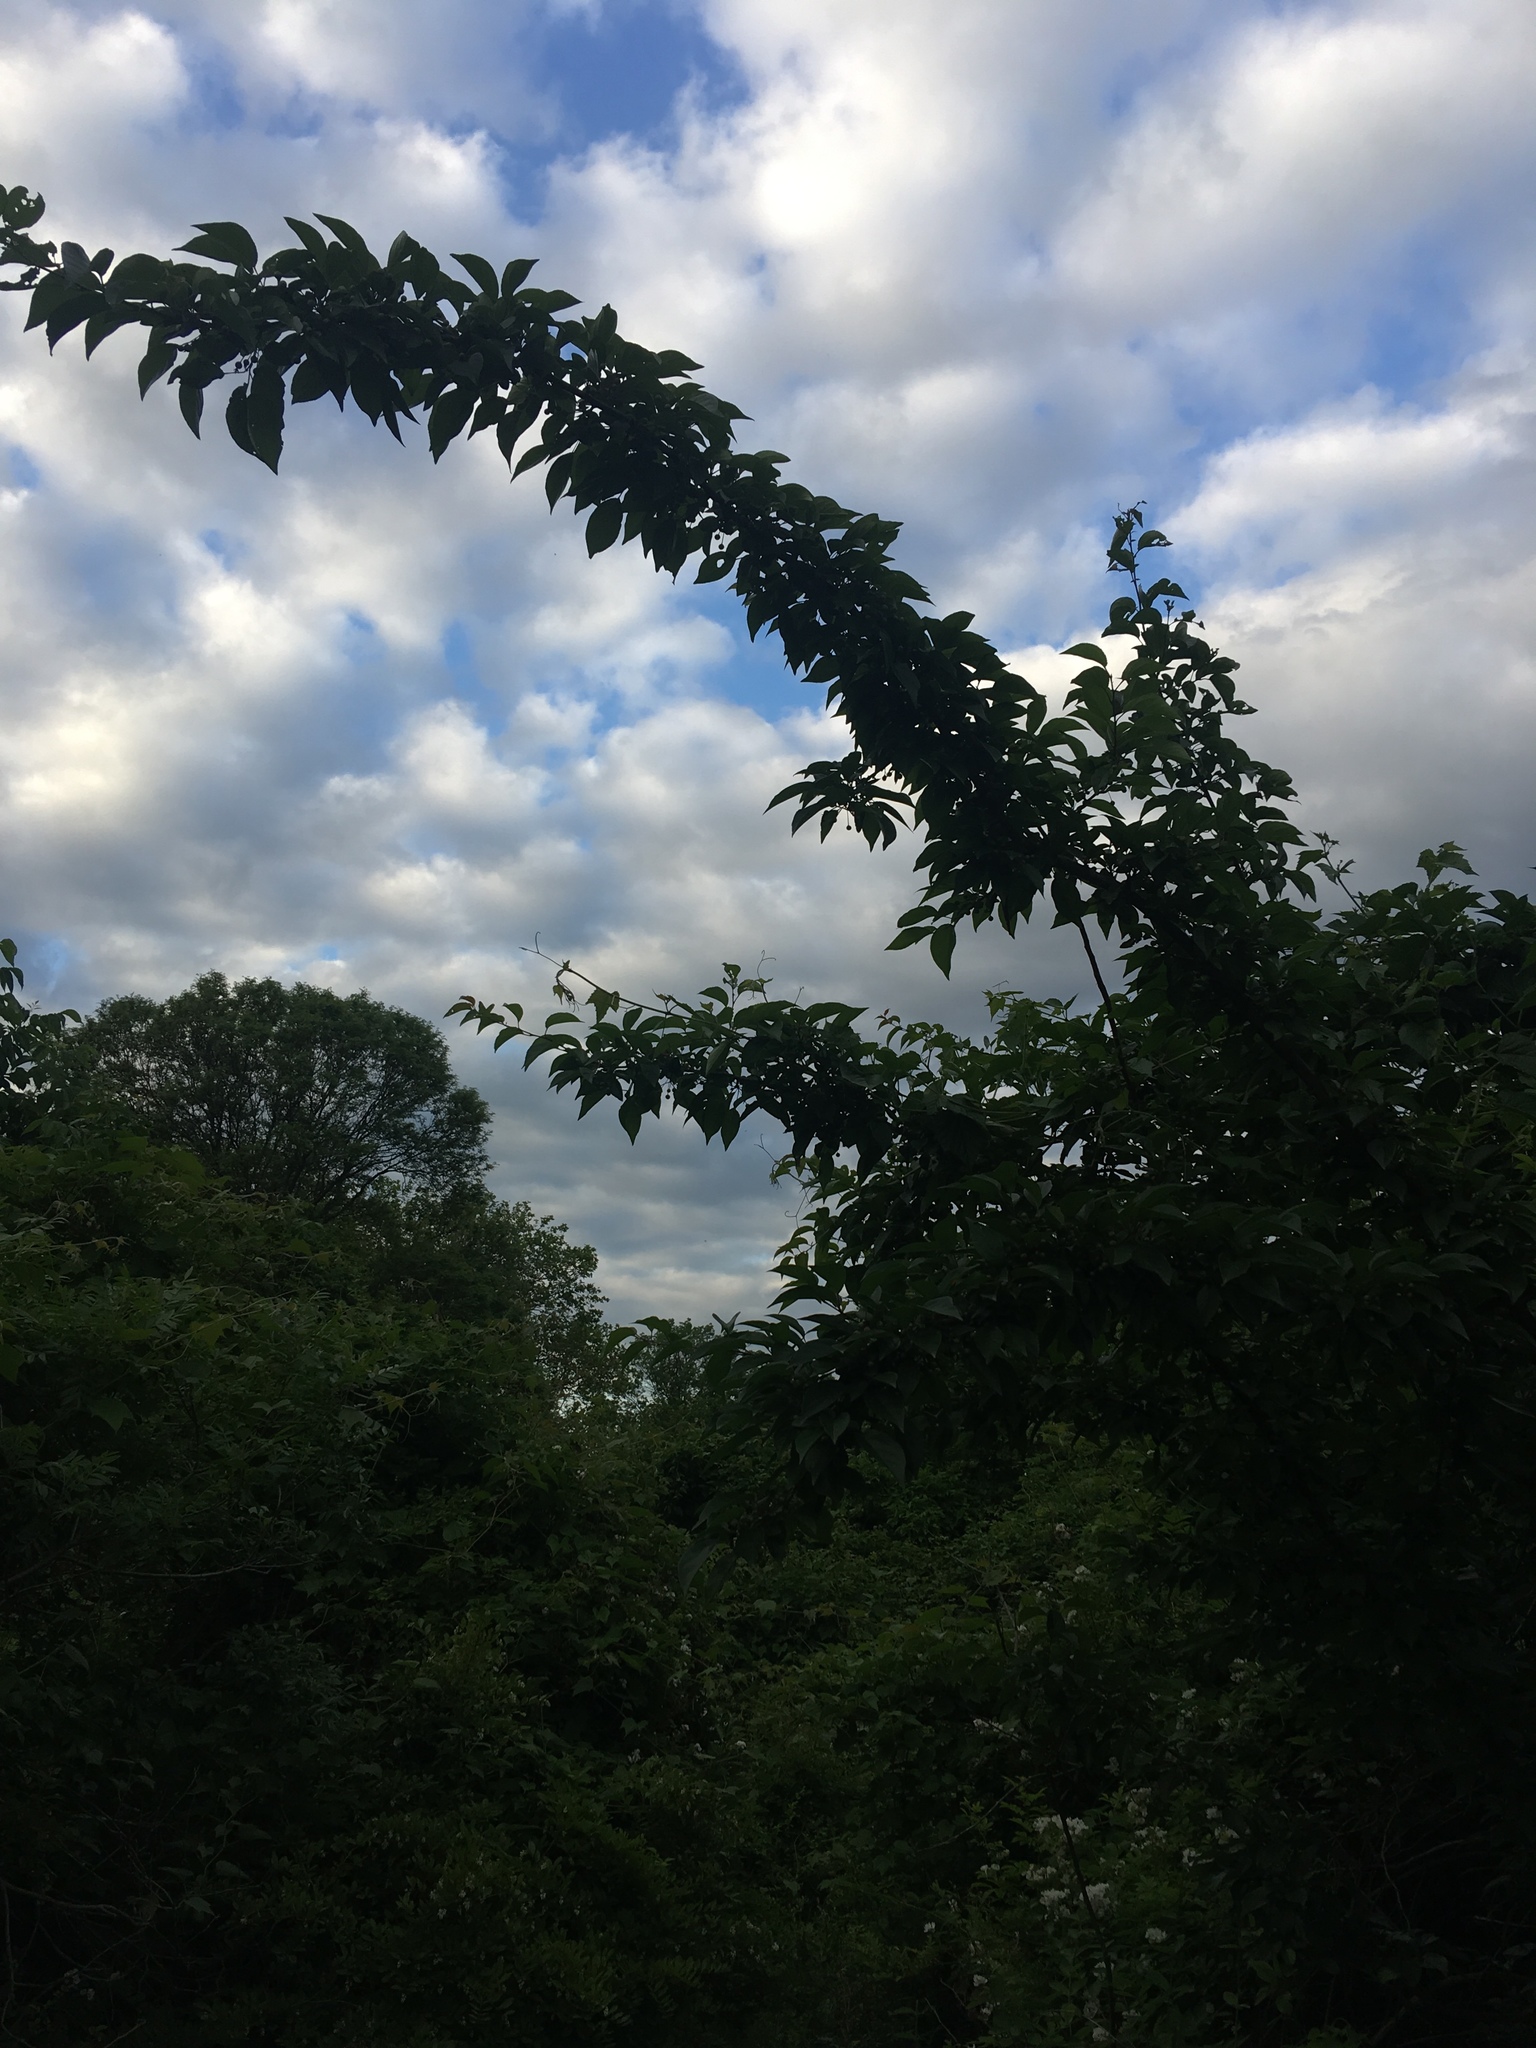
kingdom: Plantae
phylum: Tracheophyta
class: Magnoliopsida
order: Rosales
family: Rosaceae
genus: Malus
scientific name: Malus hupehensis
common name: Chinese crab apple
